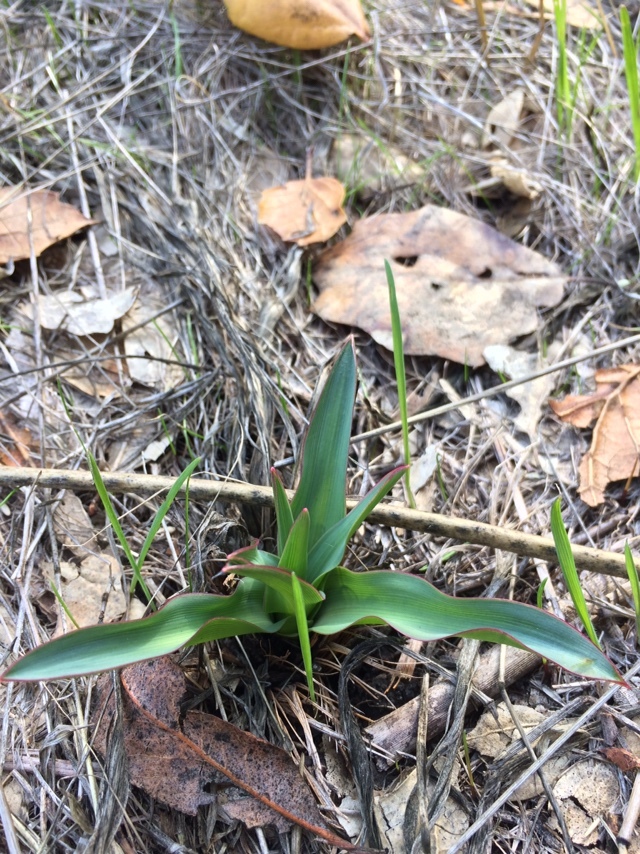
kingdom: Plantae
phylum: Tracheophyta
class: Liliopsida
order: Asparagales
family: Asparagaceae
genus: Chlorogalum
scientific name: Chlorogalum pomeridianum
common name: Amole
